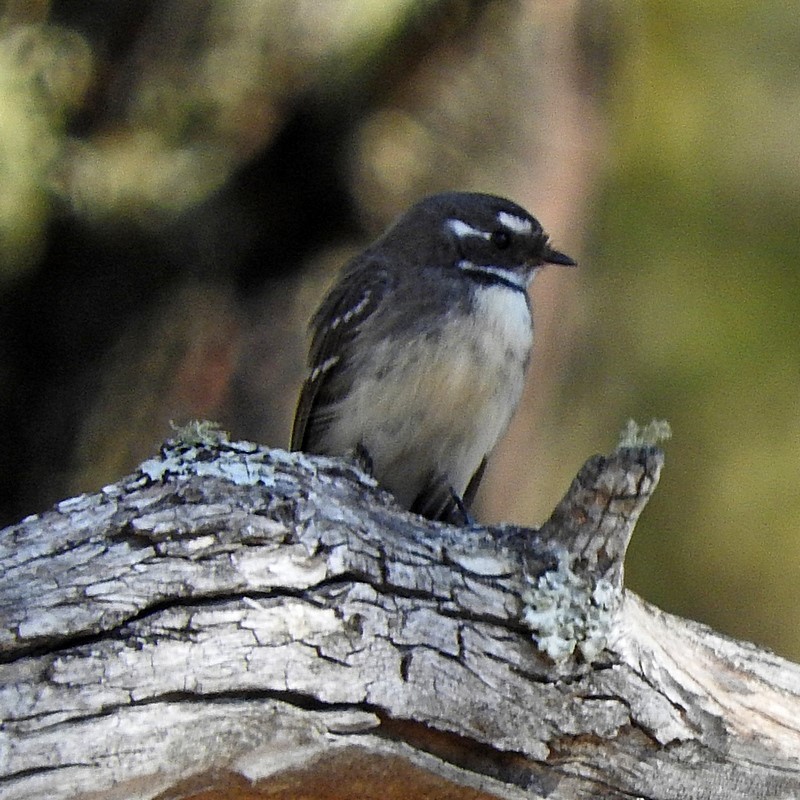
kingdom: Animalia
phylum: Chordata
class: Aves
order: Passeriformes
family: Rhipiduridae
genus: Rhipidura
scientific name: Rhipidura albiscapa
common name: Grey fantail
